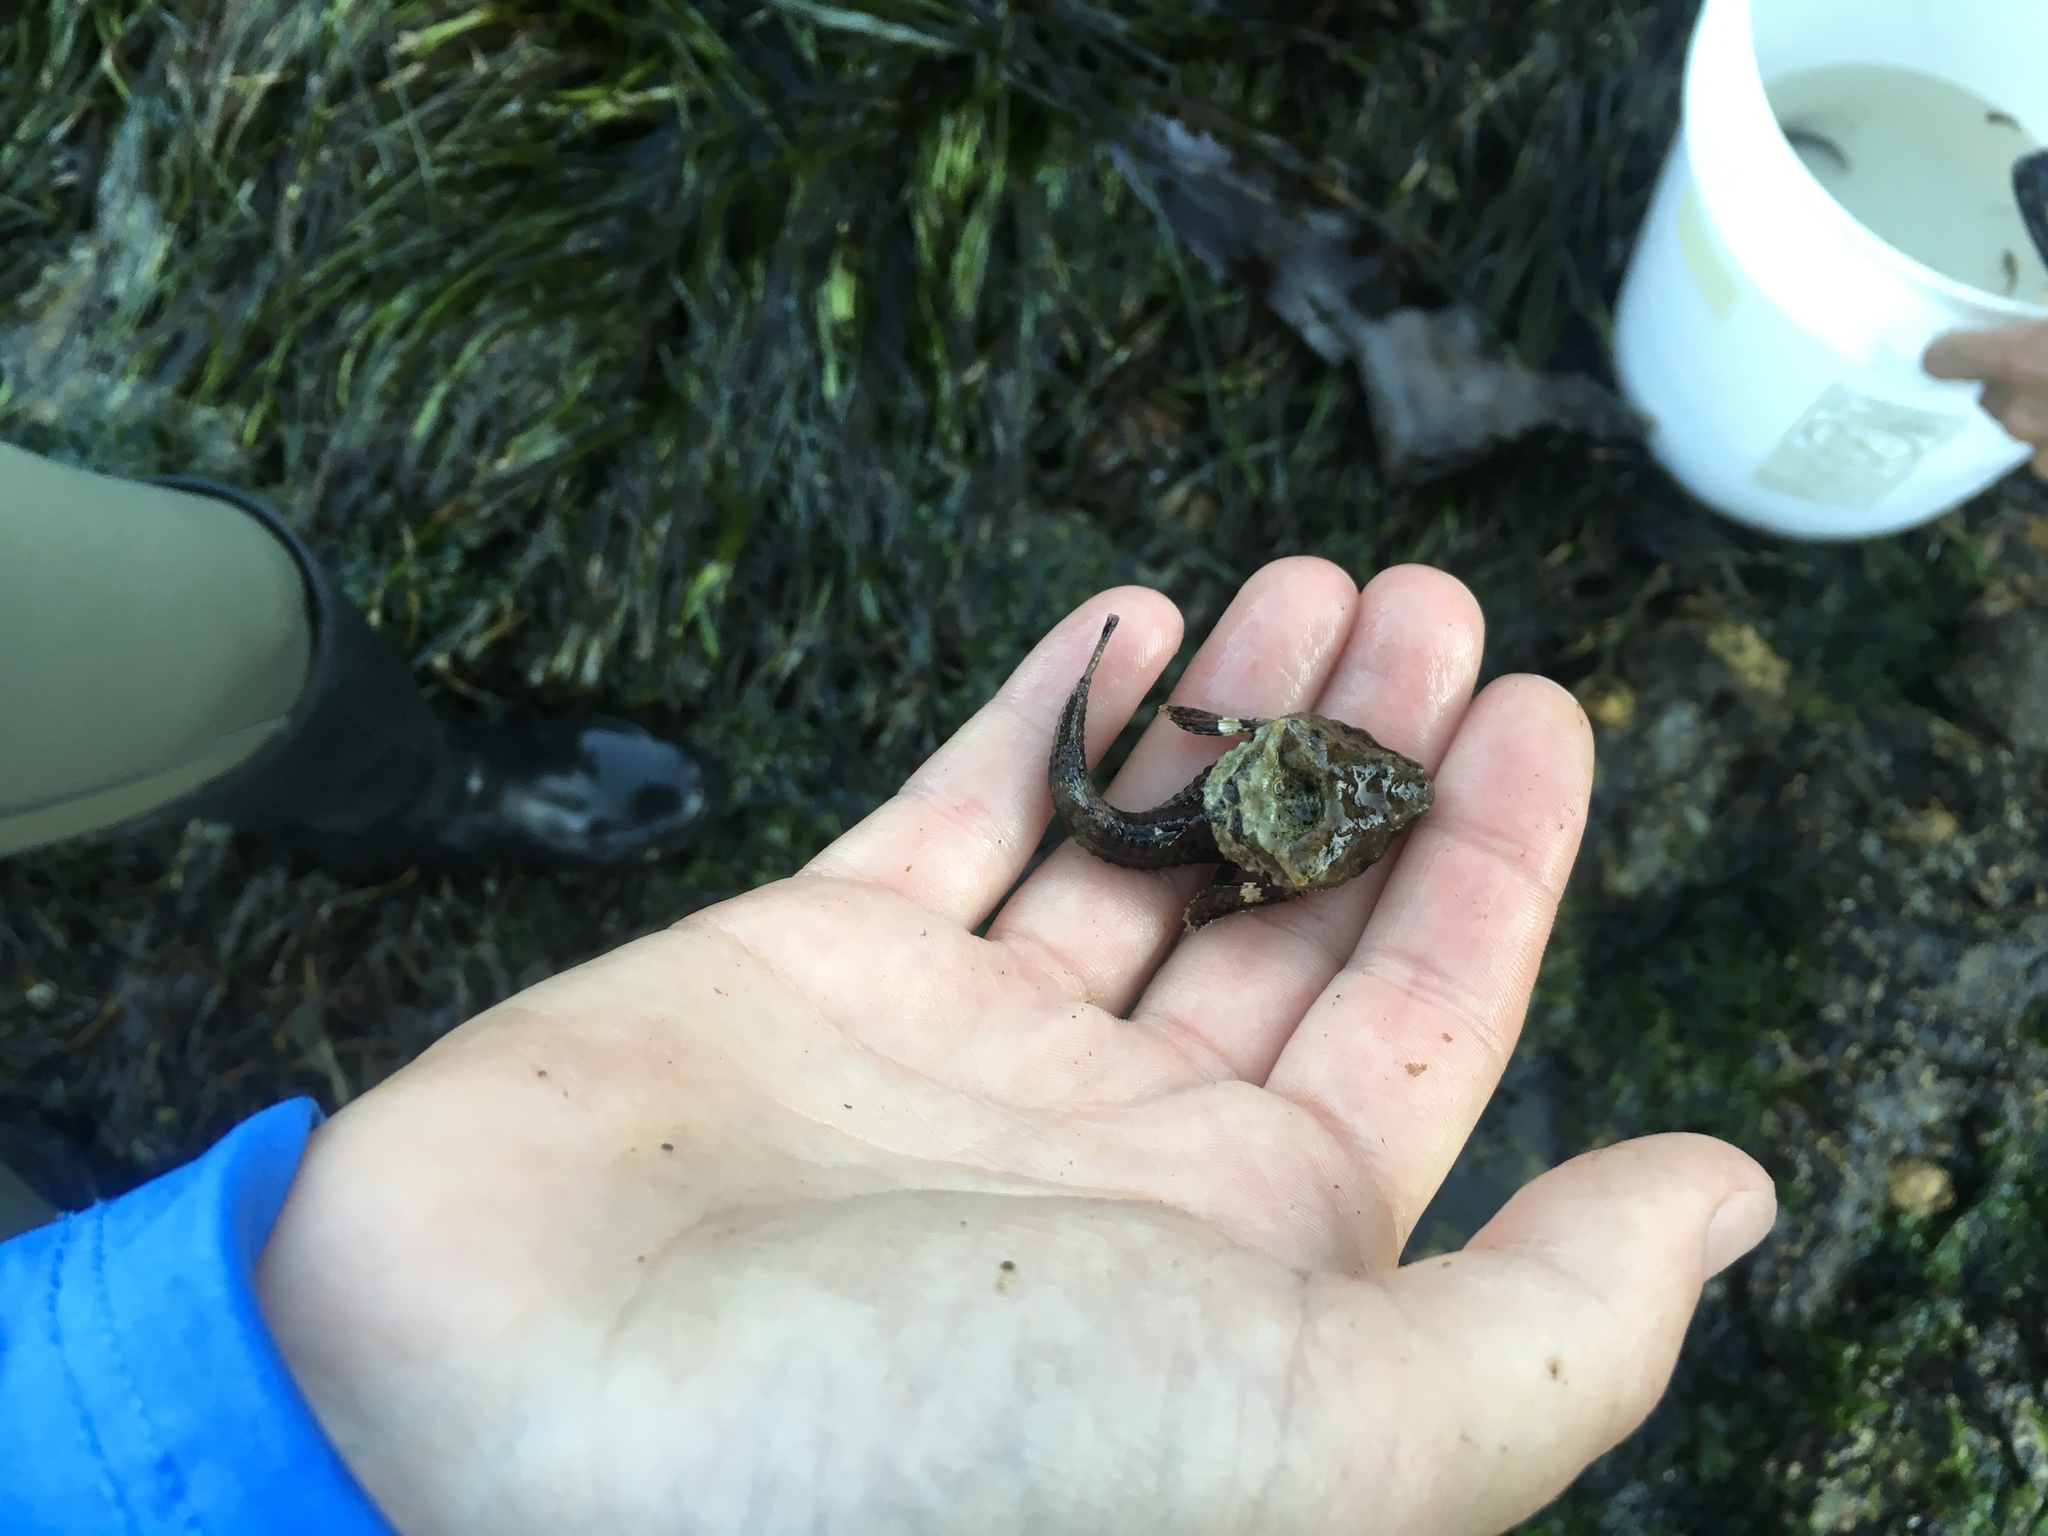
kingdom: Animalia
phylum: Chordata
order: Scorpaeniformes
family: Agonidae
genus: Bothragonus
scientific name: Bothragonus swanii
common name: Rockhead
